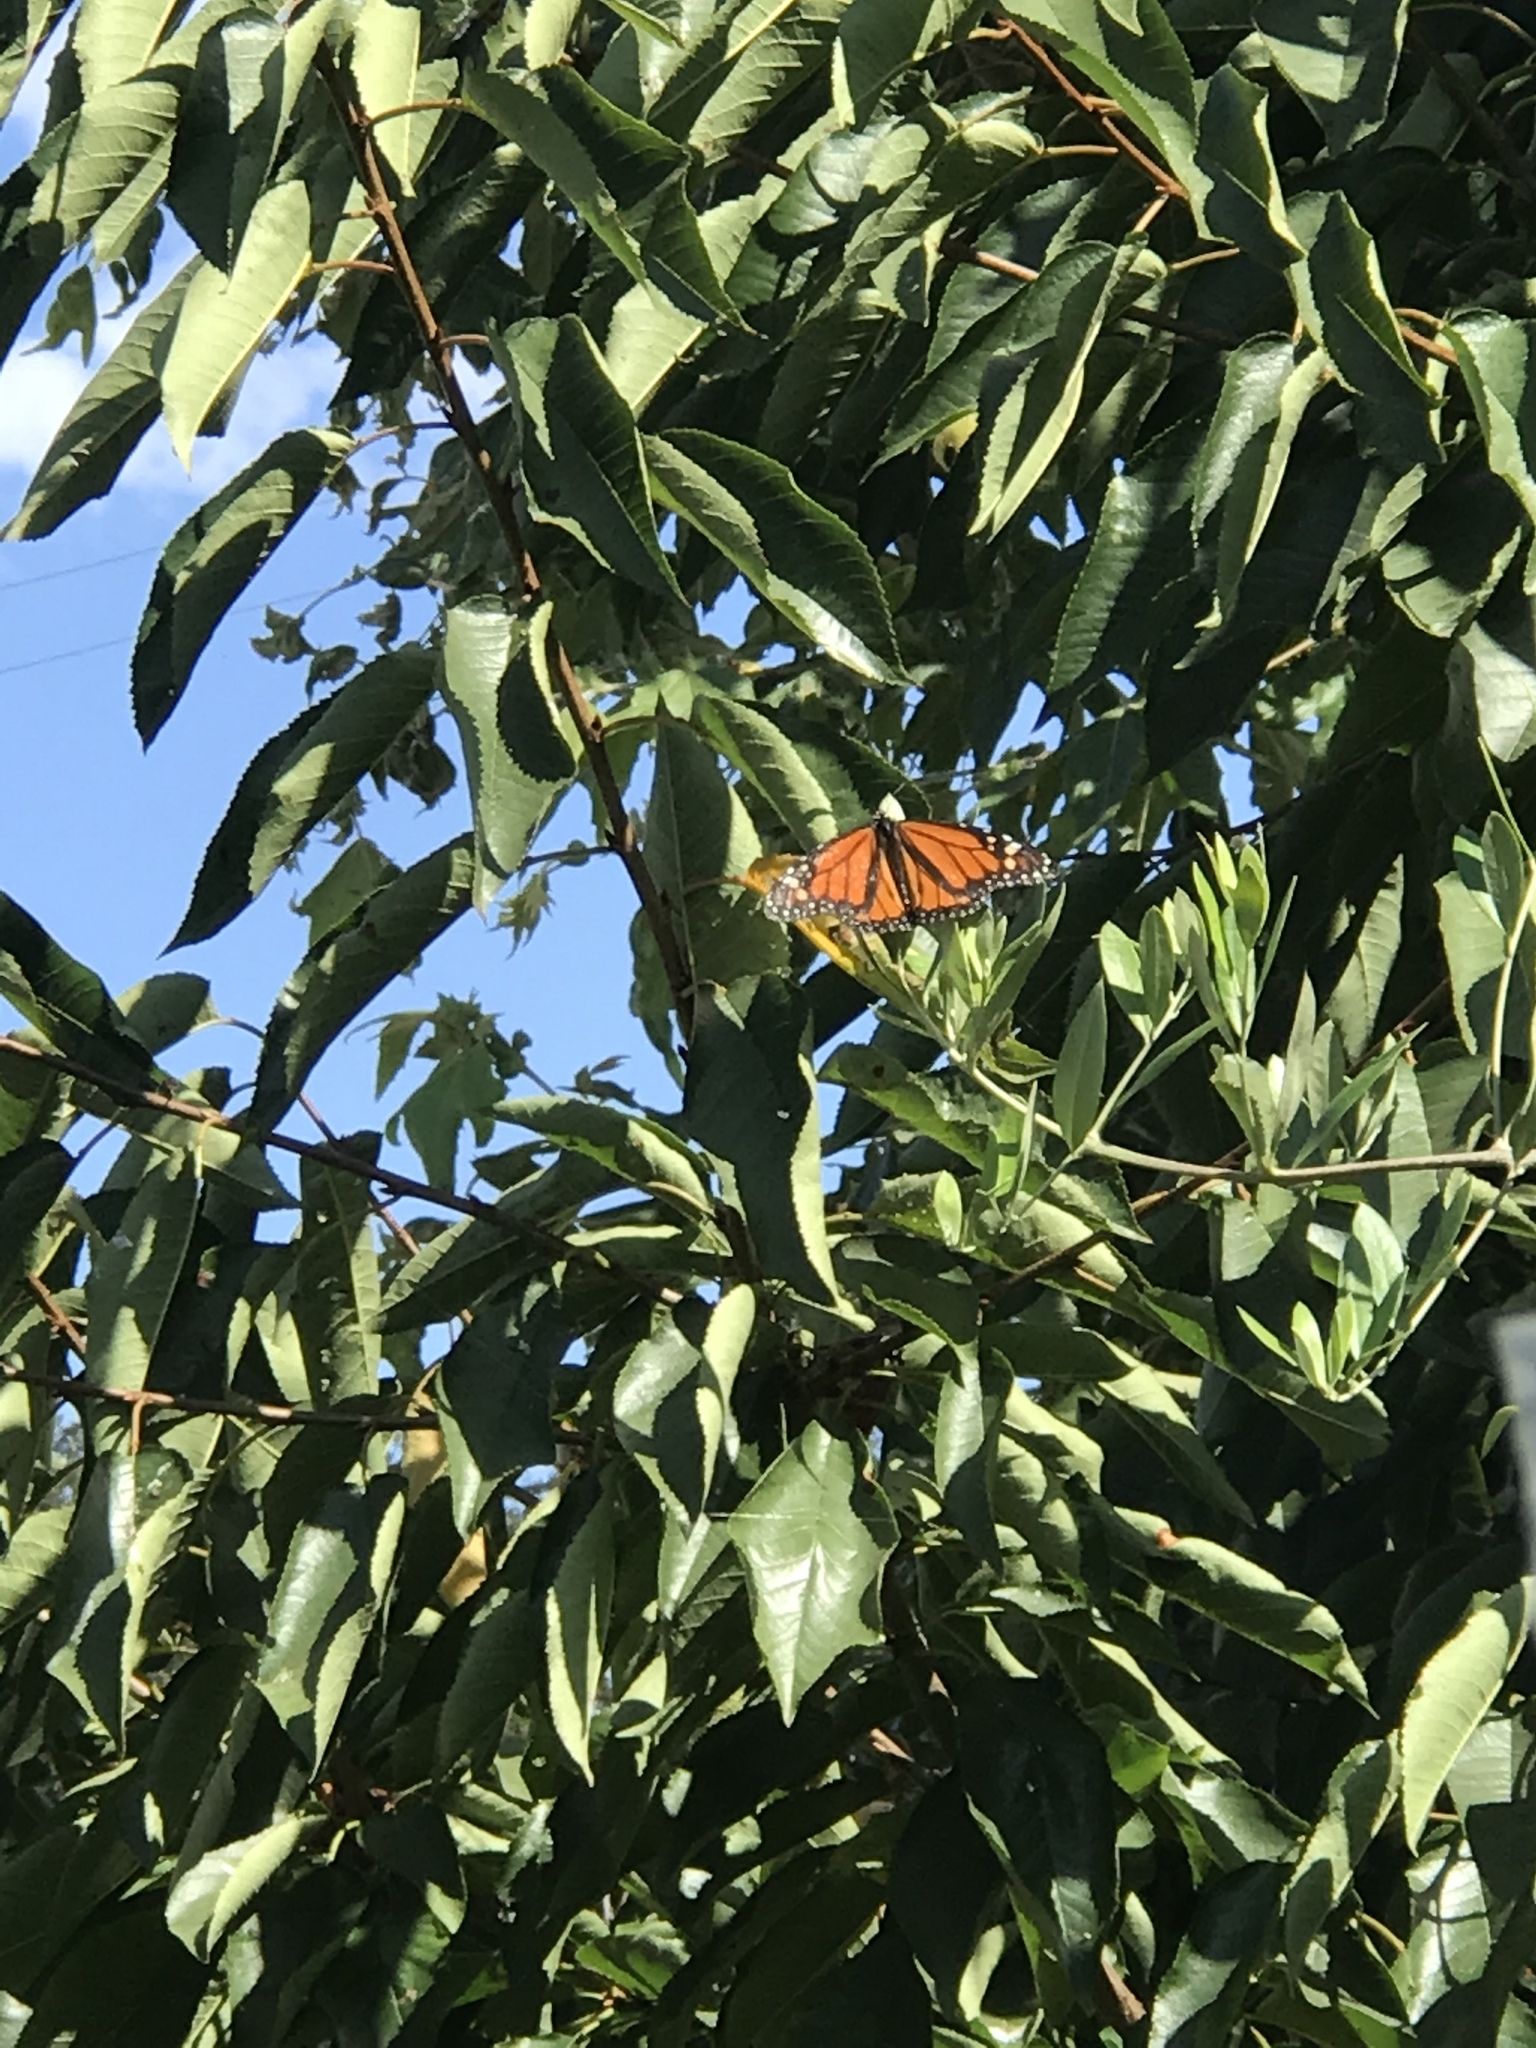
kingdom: Animalia
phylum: Arthropoda
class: Insecta
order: Lepidoptera
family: Nymphalidae
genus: Danaus
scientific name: Danaus plexippus
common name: Monarch
